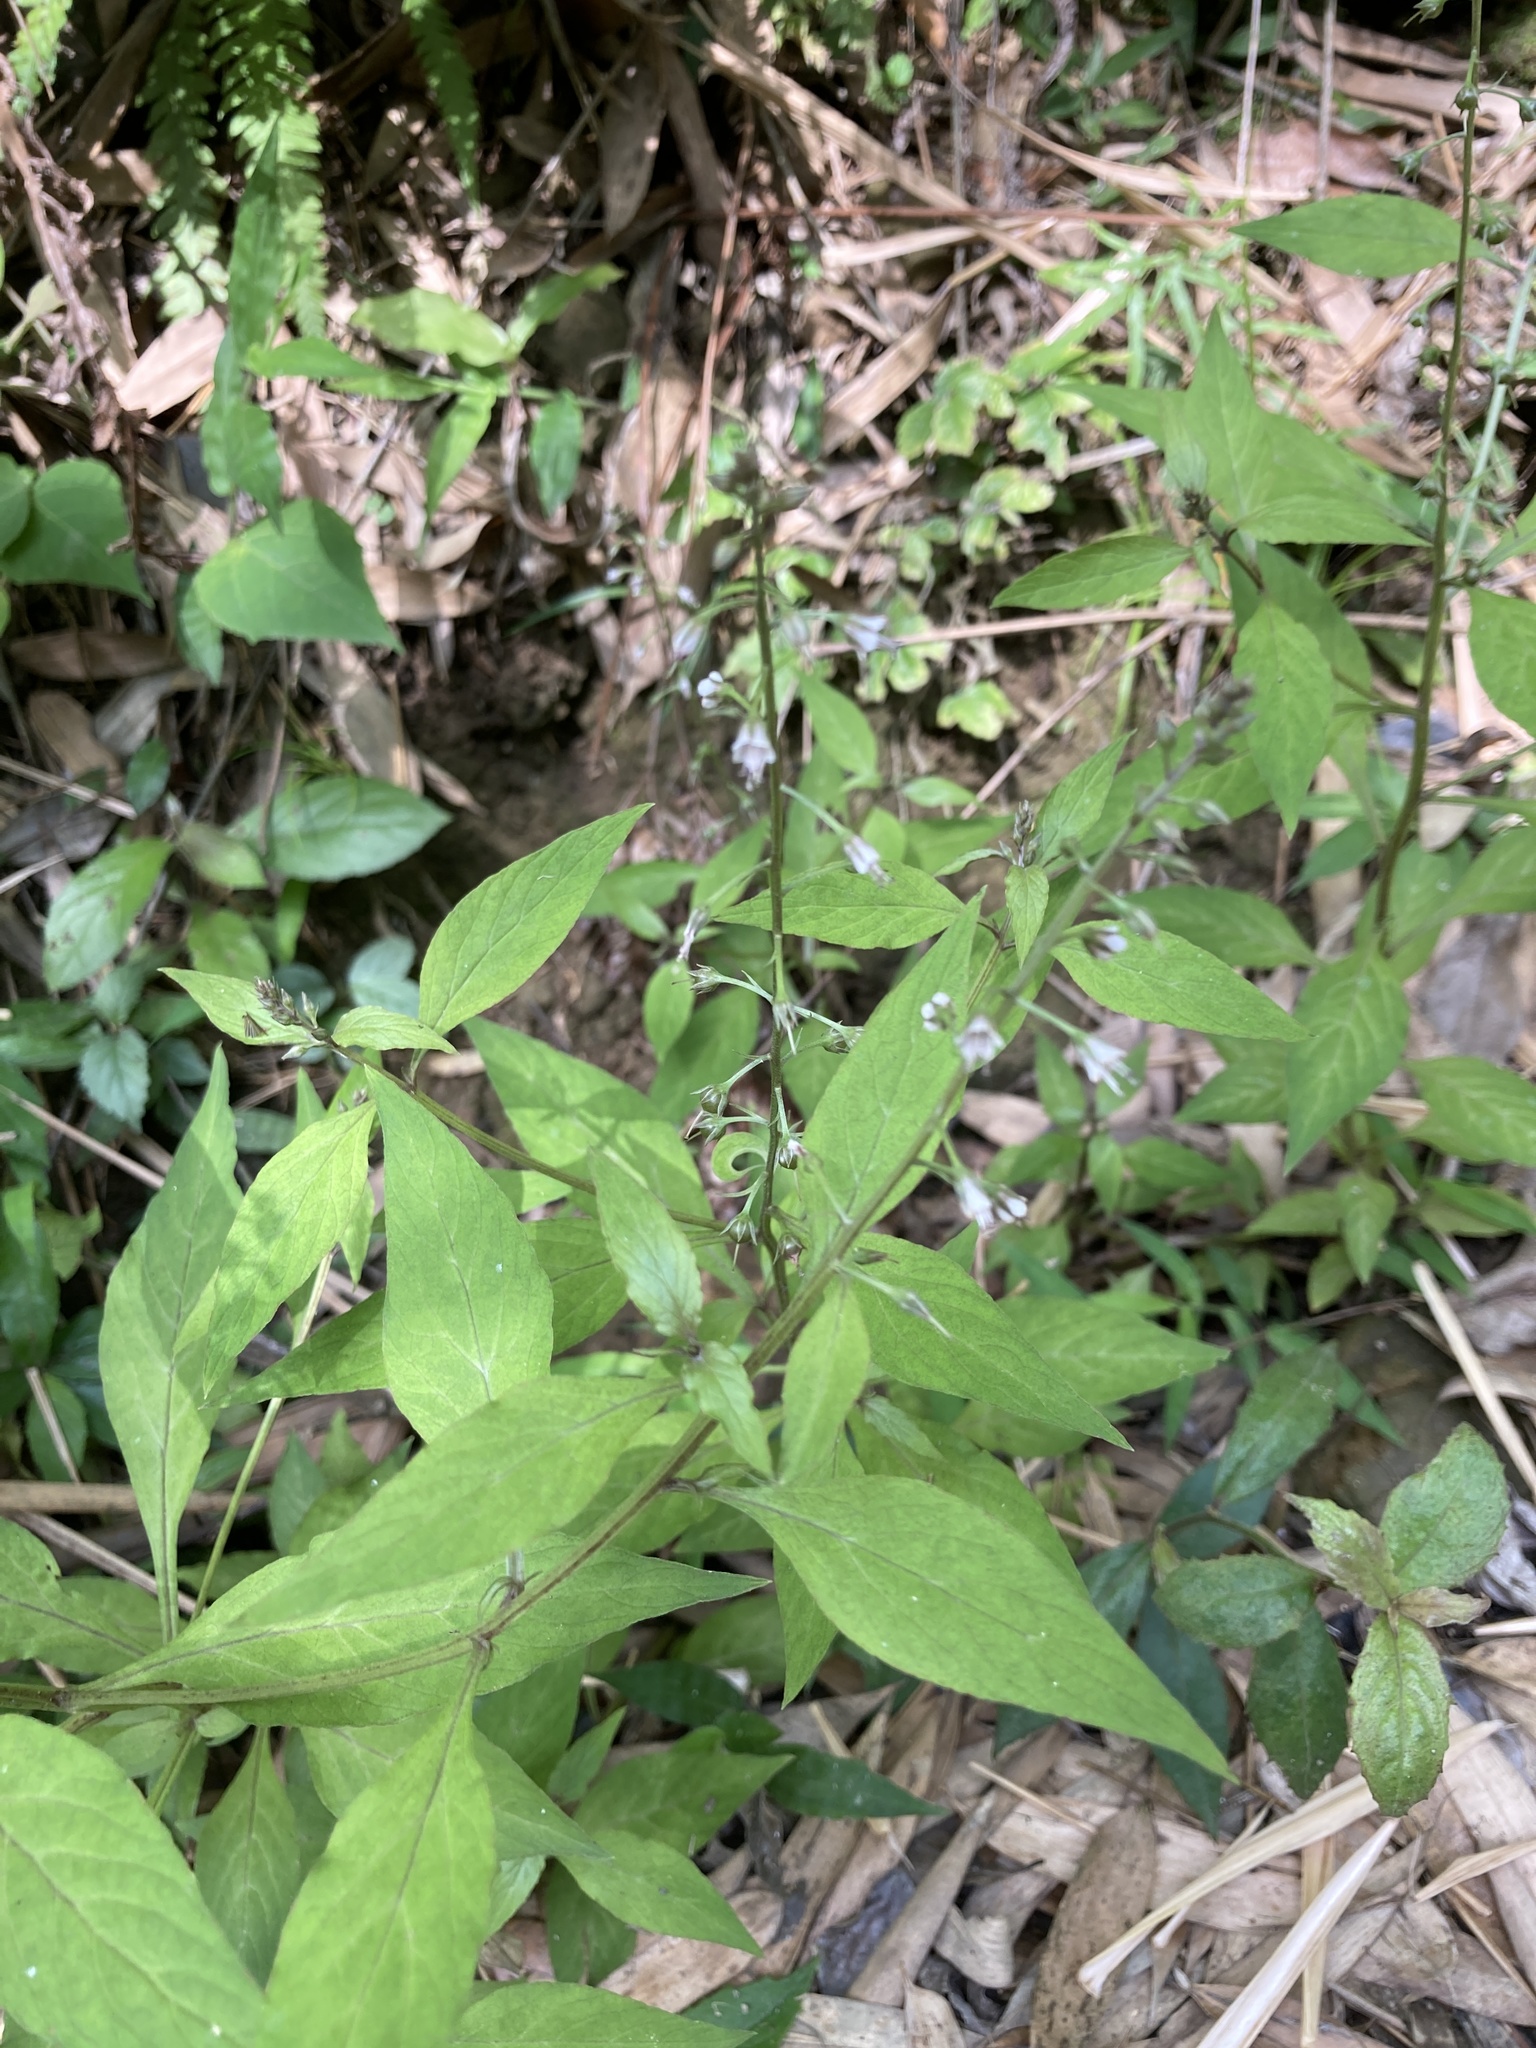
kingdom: Plantae
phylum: Tracheophyta
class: Magnoliopsida
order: Ericales
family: Primulaceae
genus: Lysimachia
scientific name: Lysimachia decurrens
